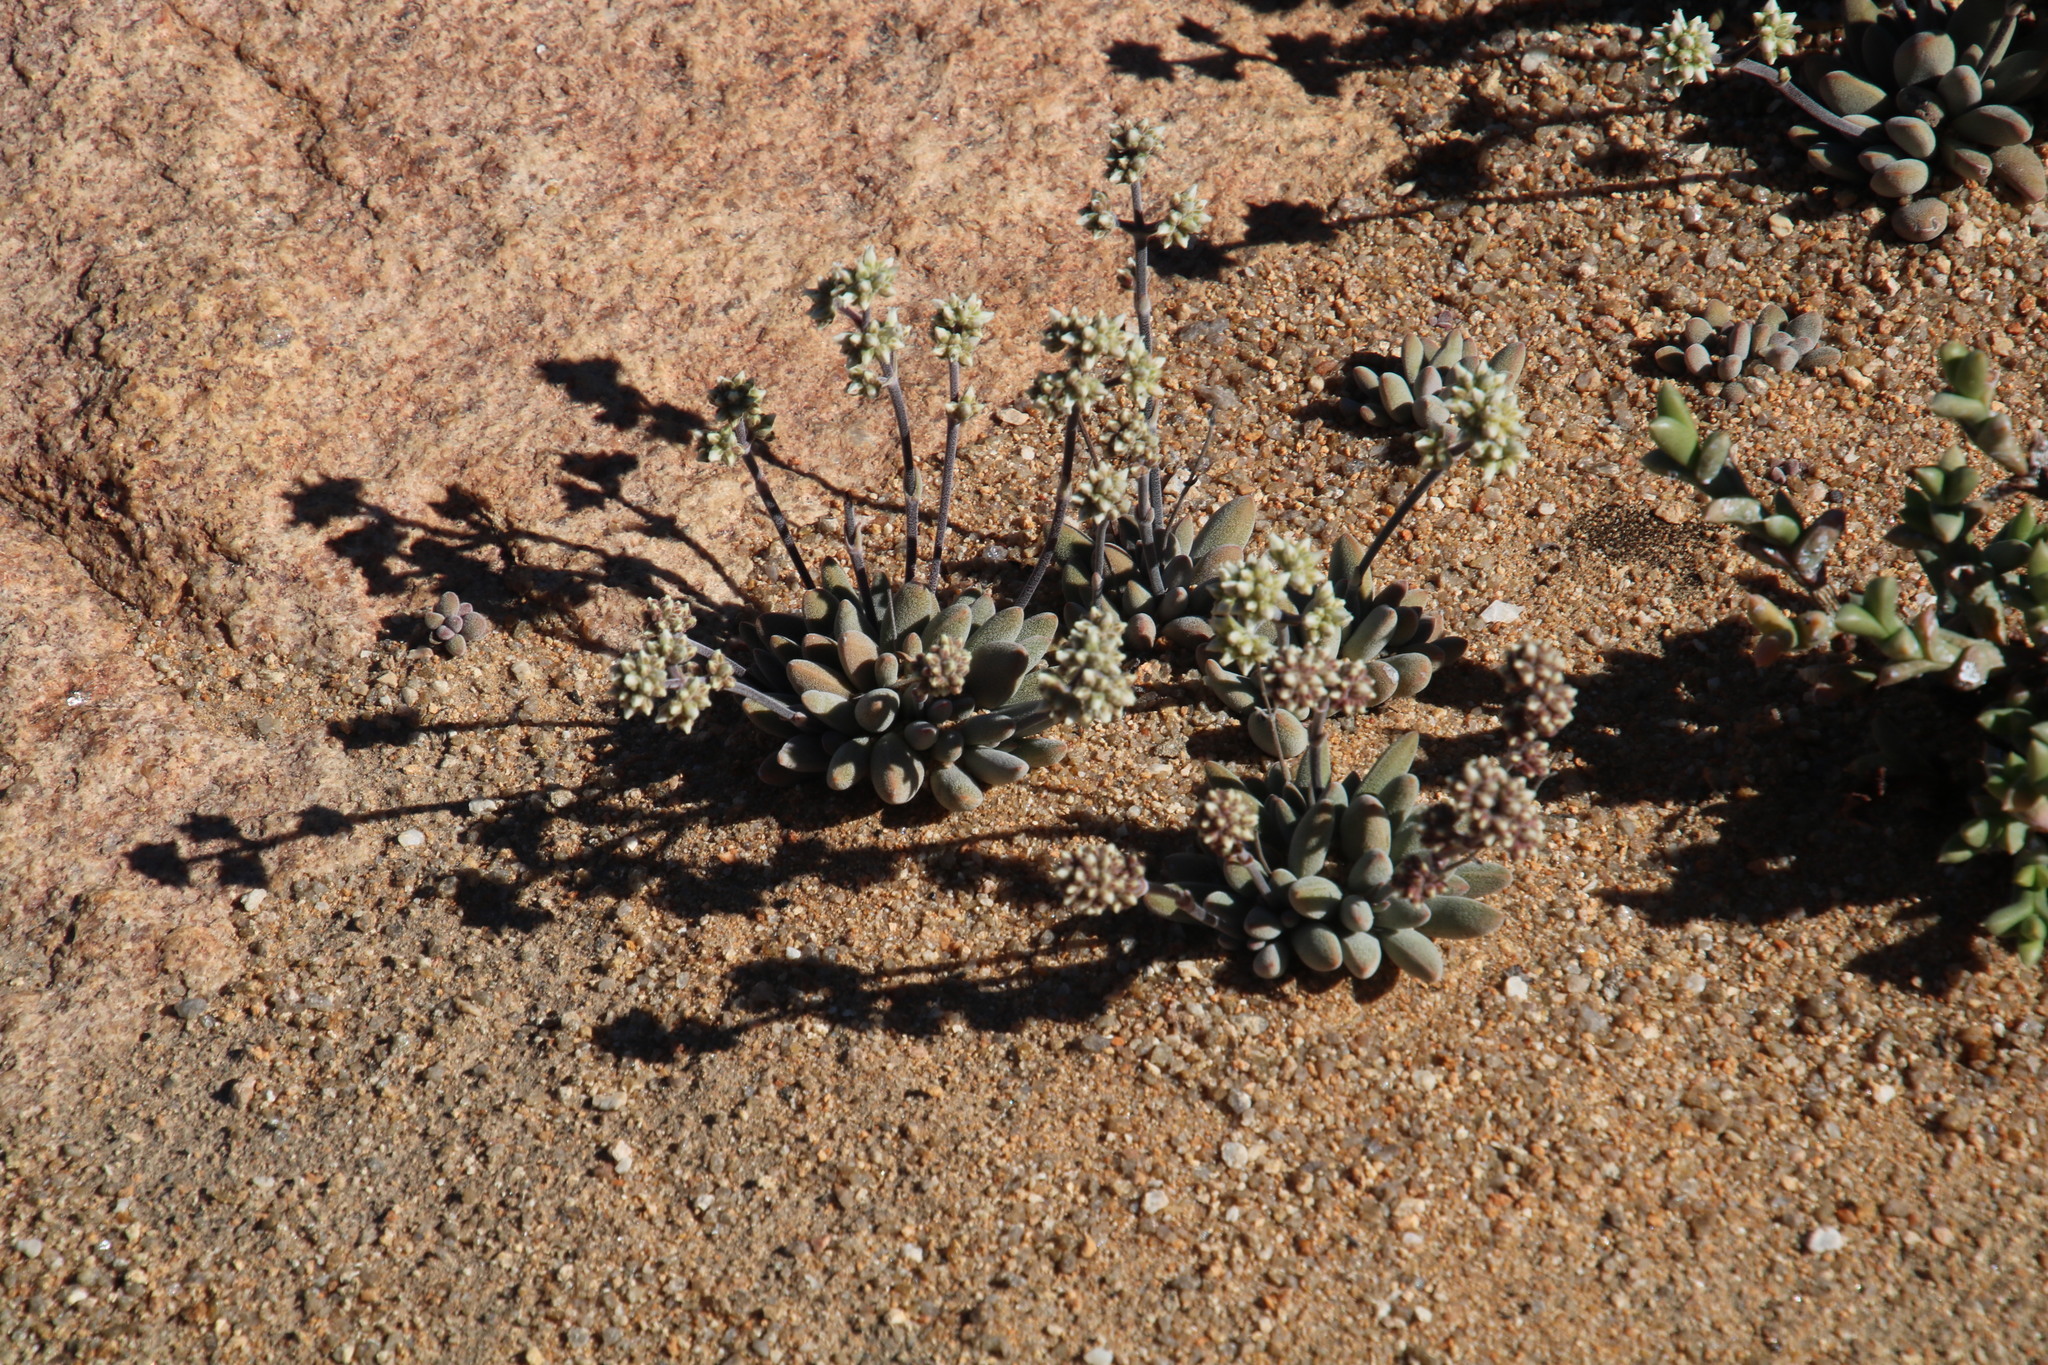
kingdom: Plantae
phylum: Tracheophyta
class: Magnoliopsida
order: Saxifragales
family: Crassulaceae
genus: Crassula
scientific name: Crassula namaquensis
